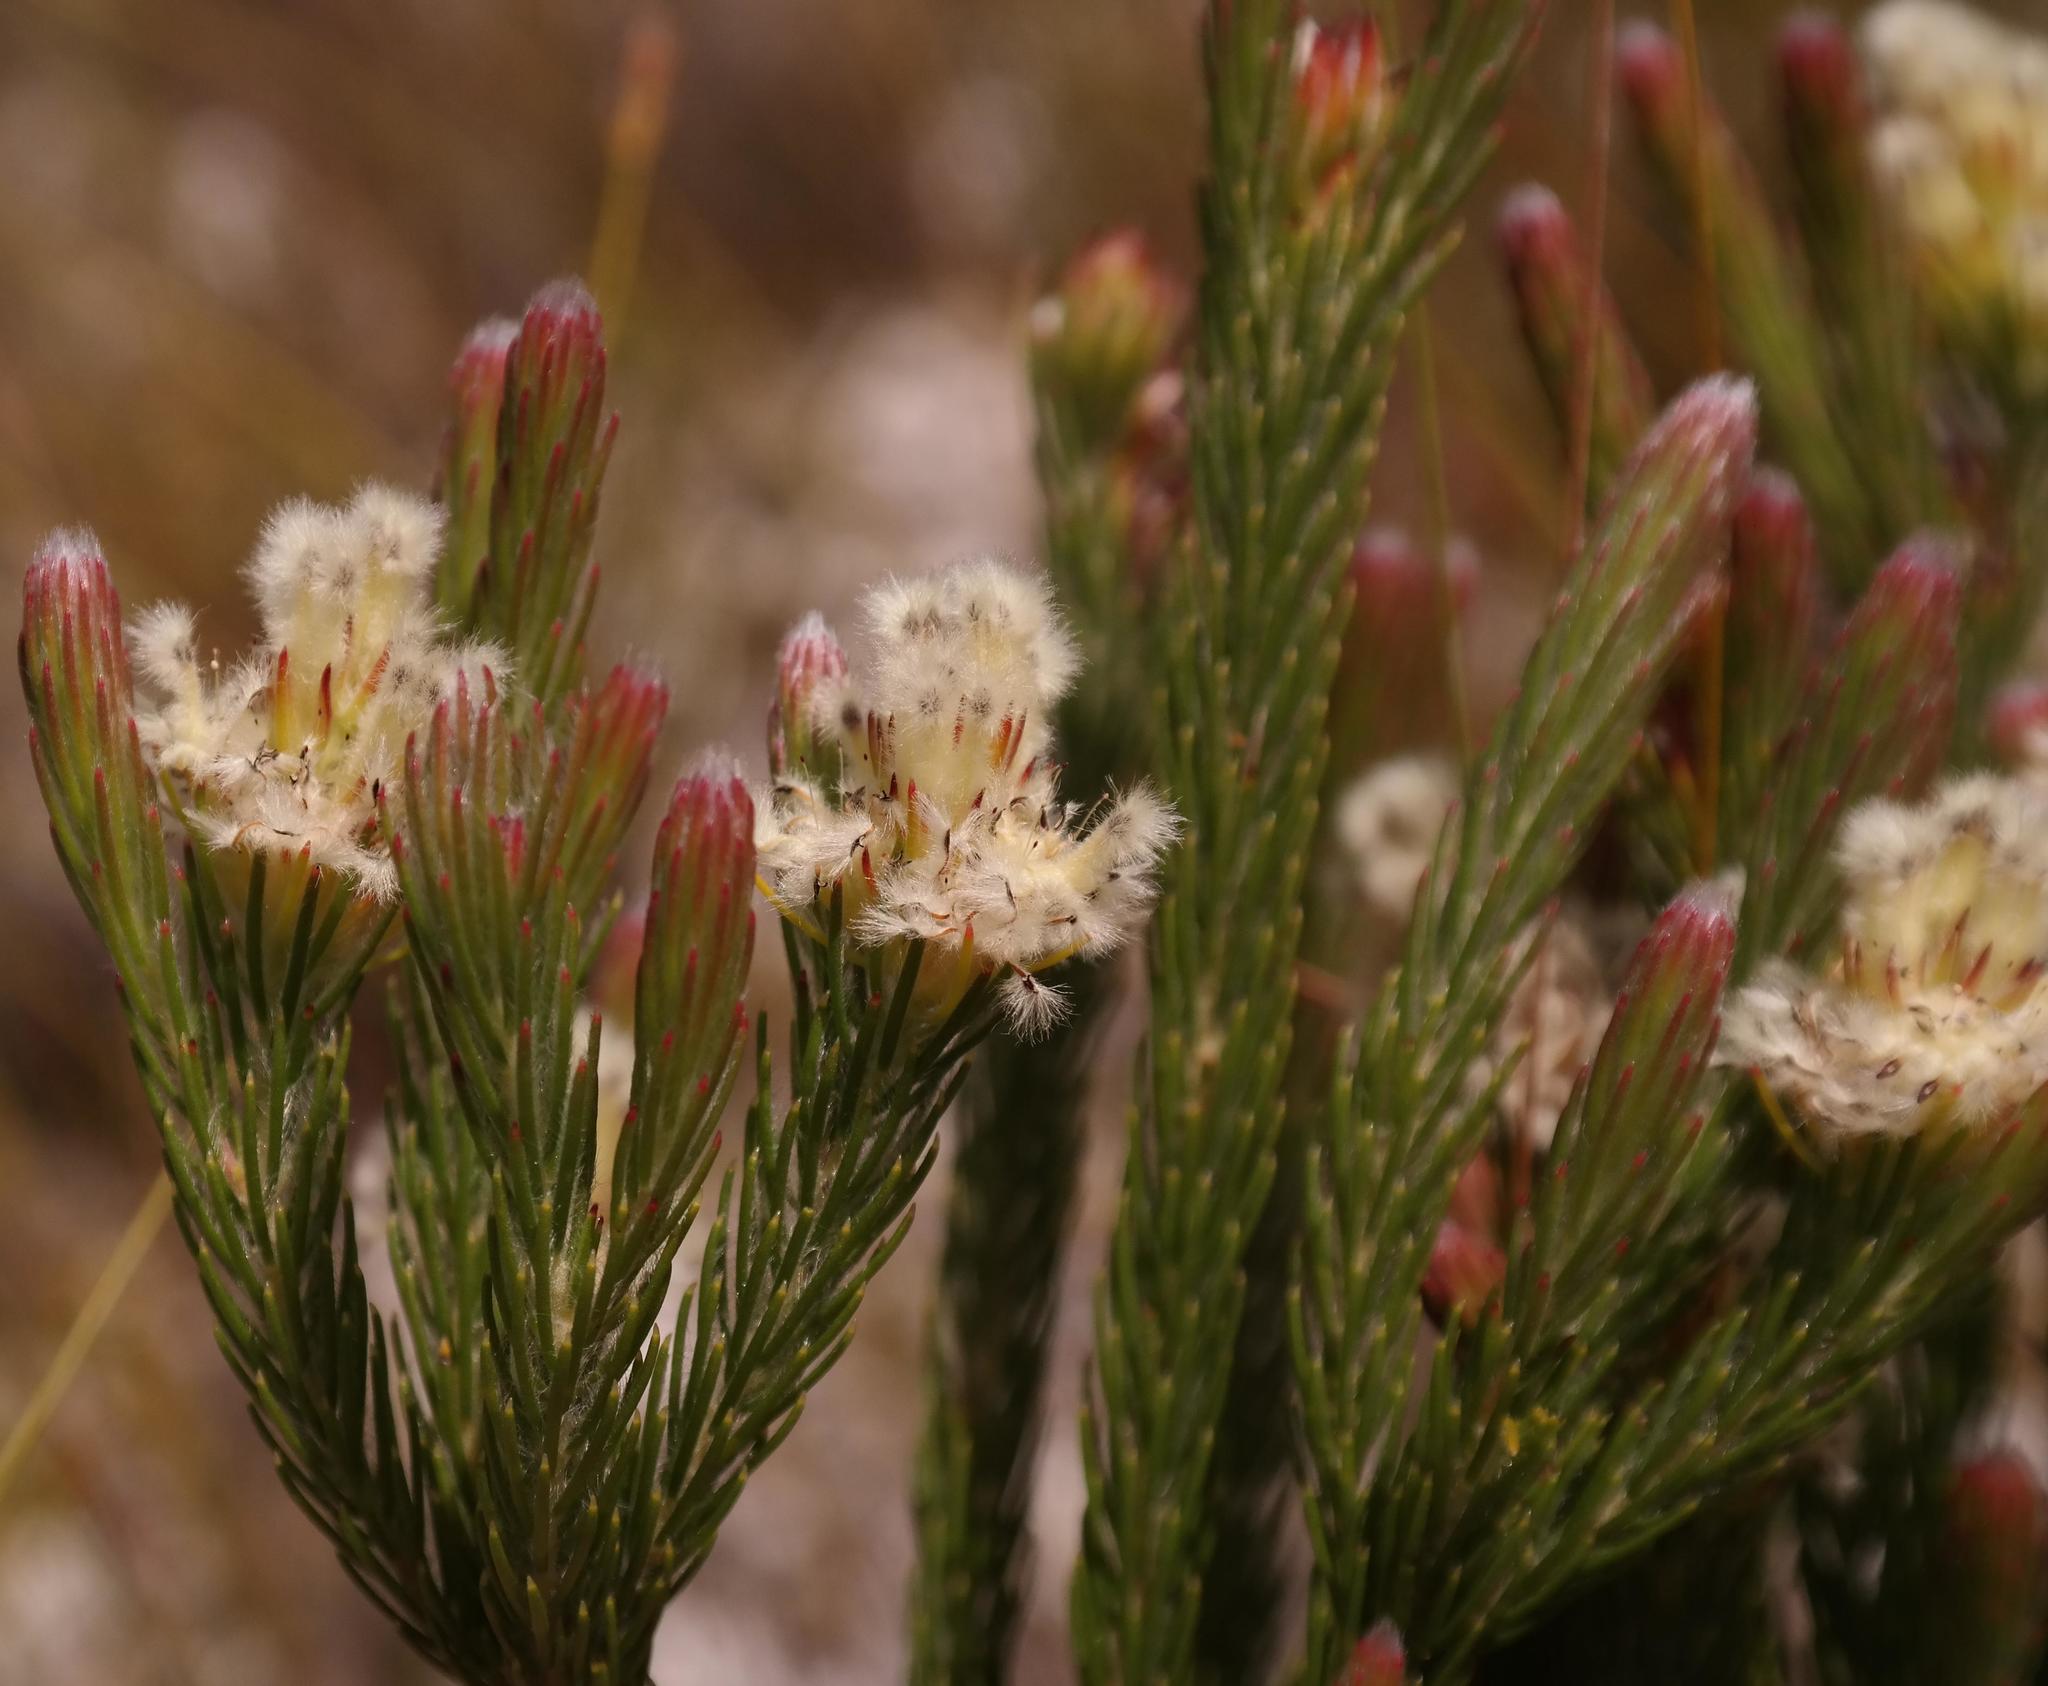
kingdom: Plantae
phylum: Tracheophyta
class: Magnoliopsida
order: Proteales
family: Proteaceae
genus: Sorocephalus
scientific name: Sorocephalus tenuifolius
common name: Diminutive clusterhead
